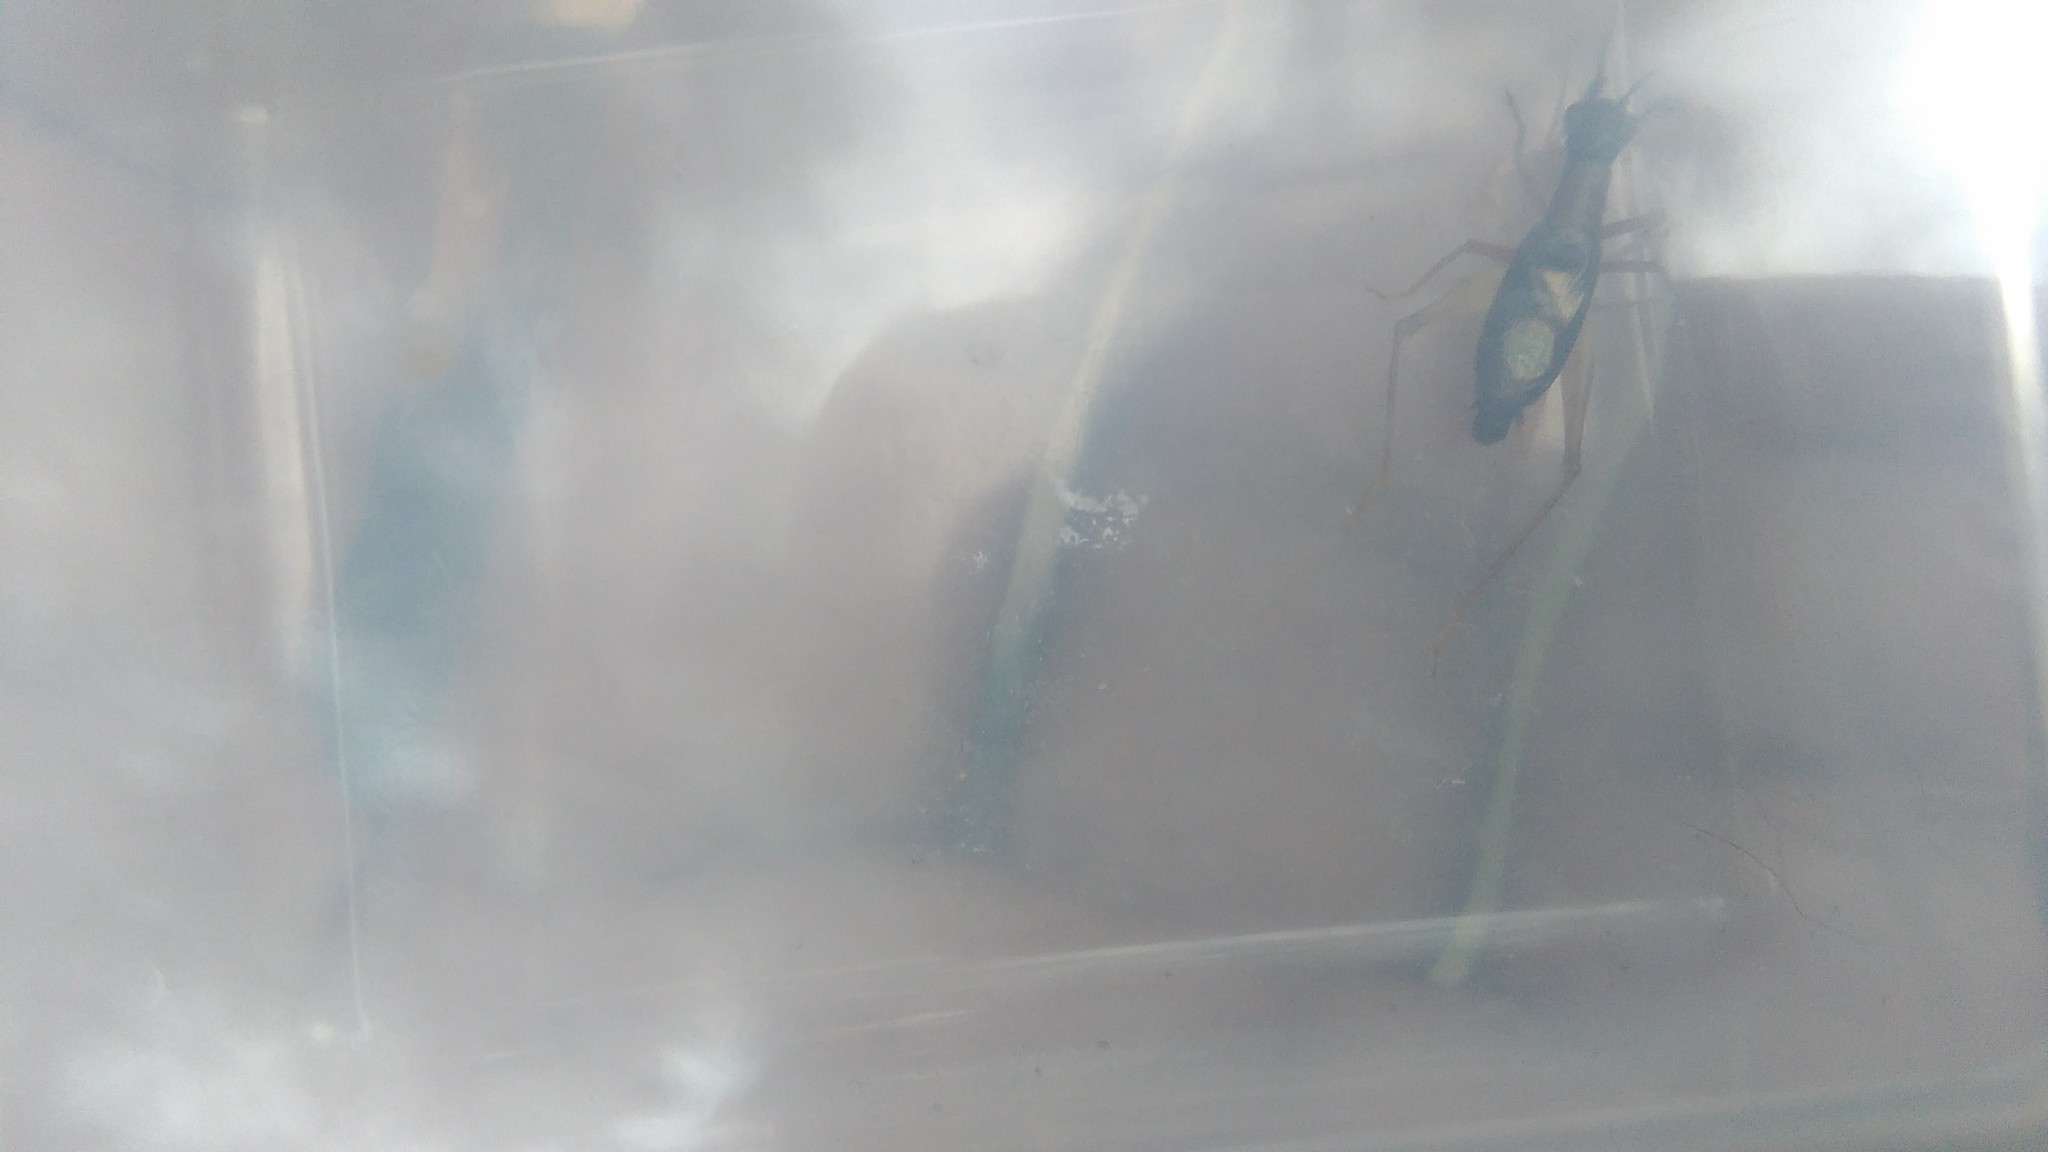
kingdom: Animalia
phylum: Arthropoda
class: Insecta
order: Orthoptera
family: Trigonidiidae
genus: Cranistus
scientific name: Cranistus colliurides
